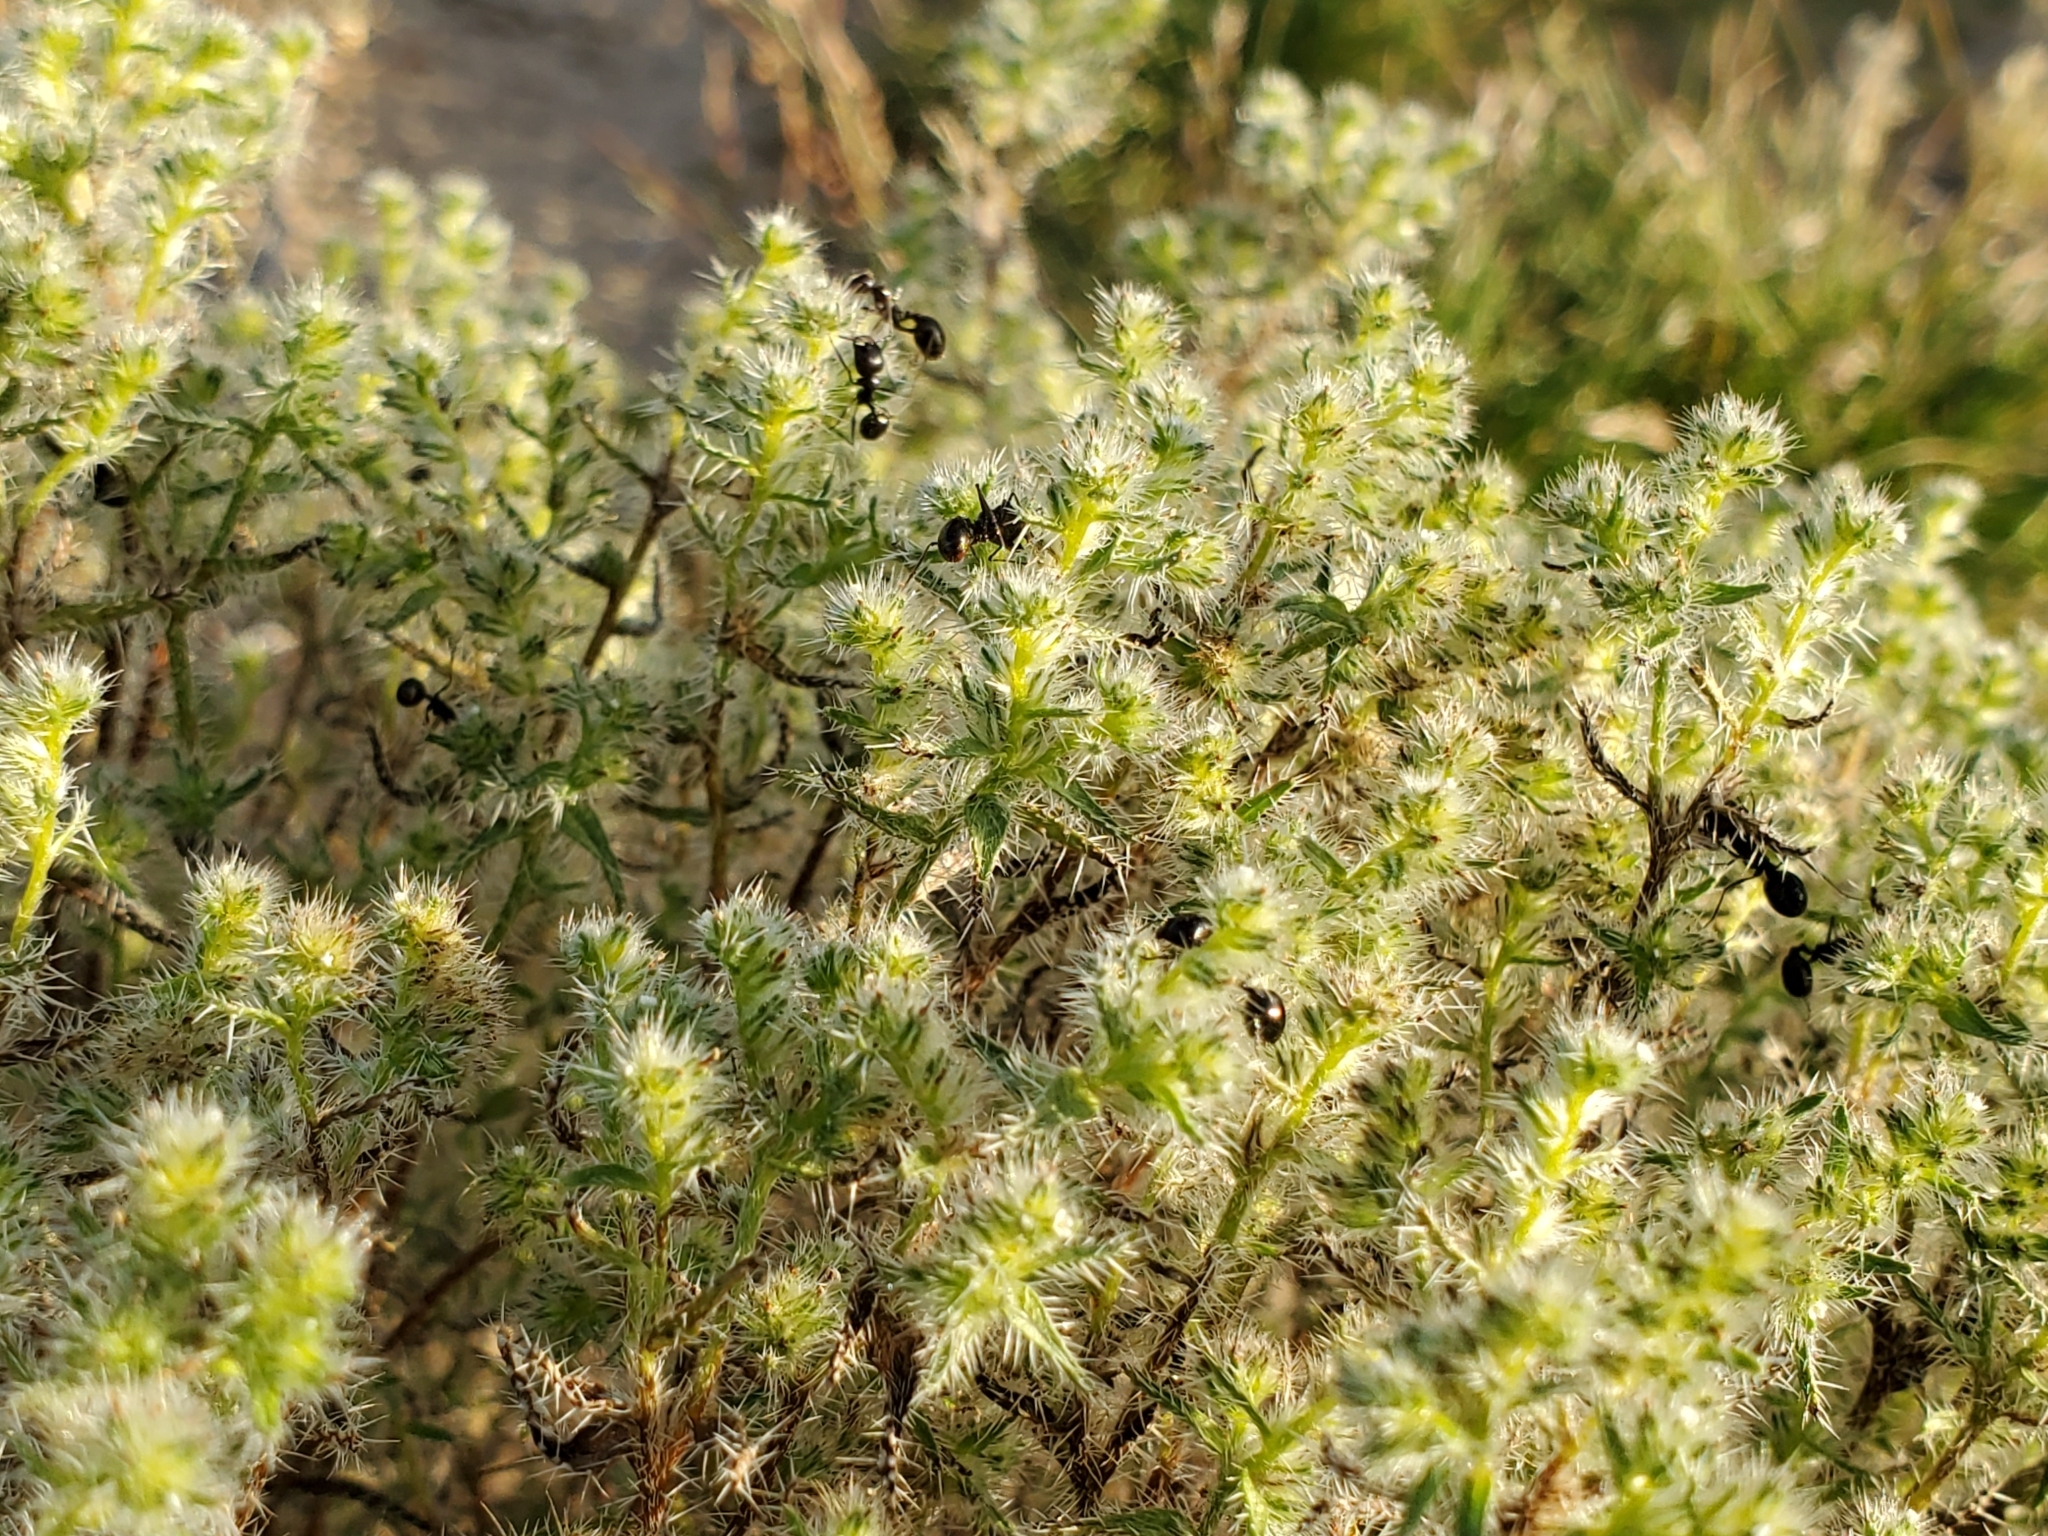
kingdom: Animalia
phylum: Arthropoda
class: Insecta
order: Hymenoptera
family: Formicidae
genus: Messor
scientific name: Messor pergandei
